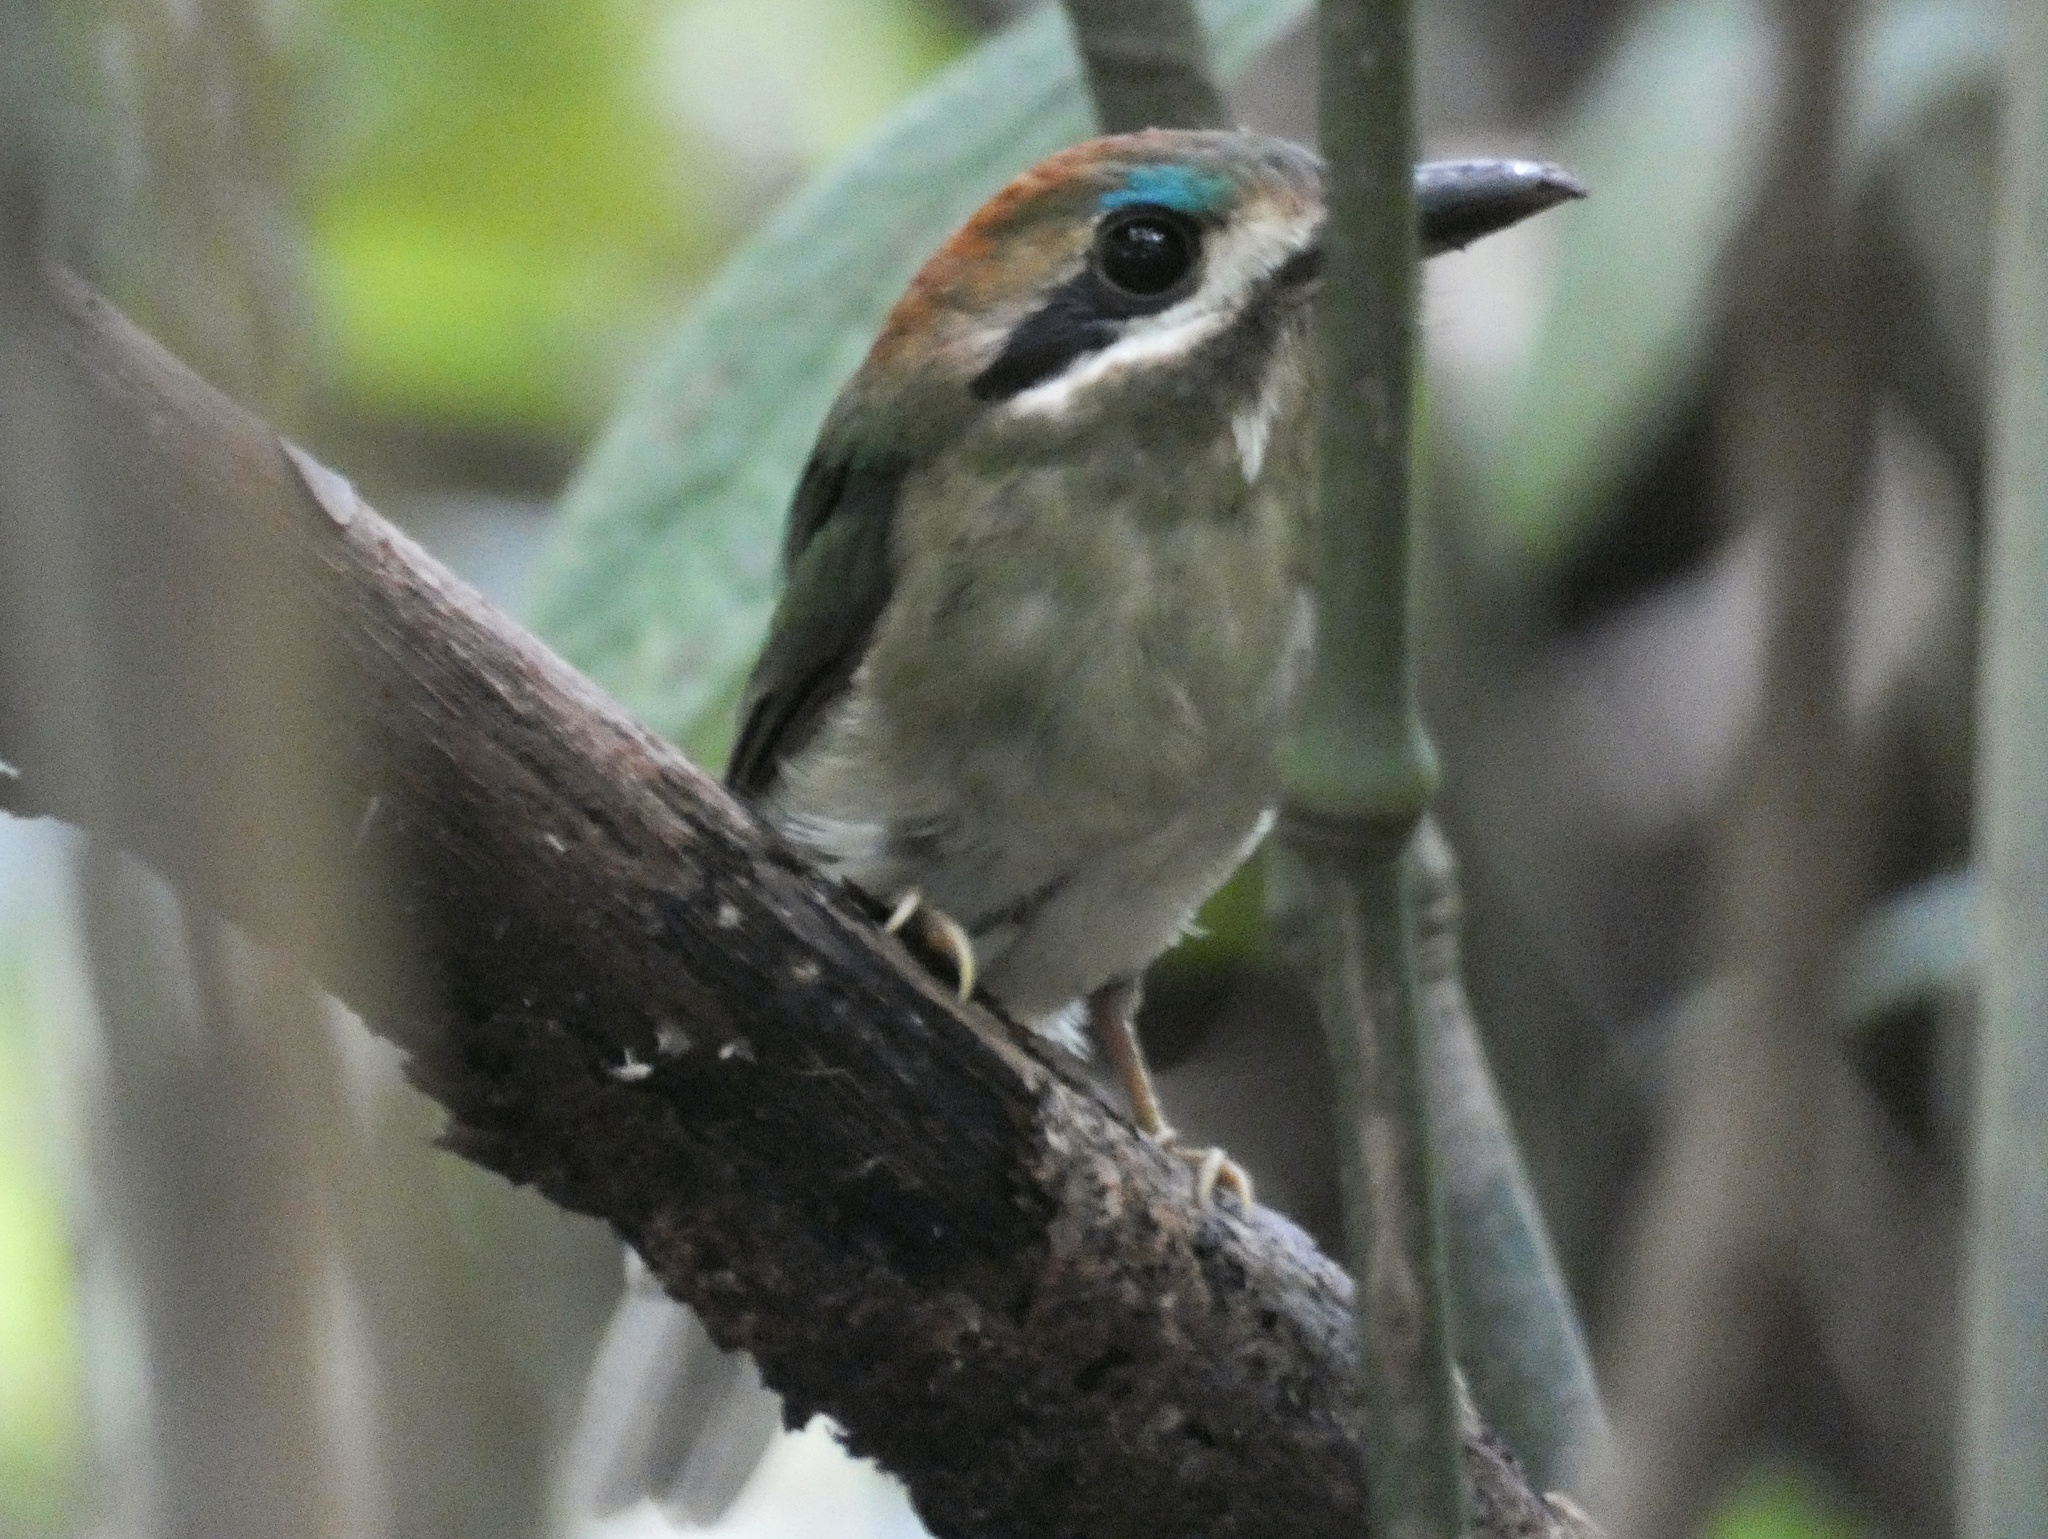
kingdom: Animalia
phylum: Chordata
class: Aves
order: Coraciiformes
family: Momotidae
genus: Hylomanes
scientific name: Hylomanes momotula
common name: Tody motmot
